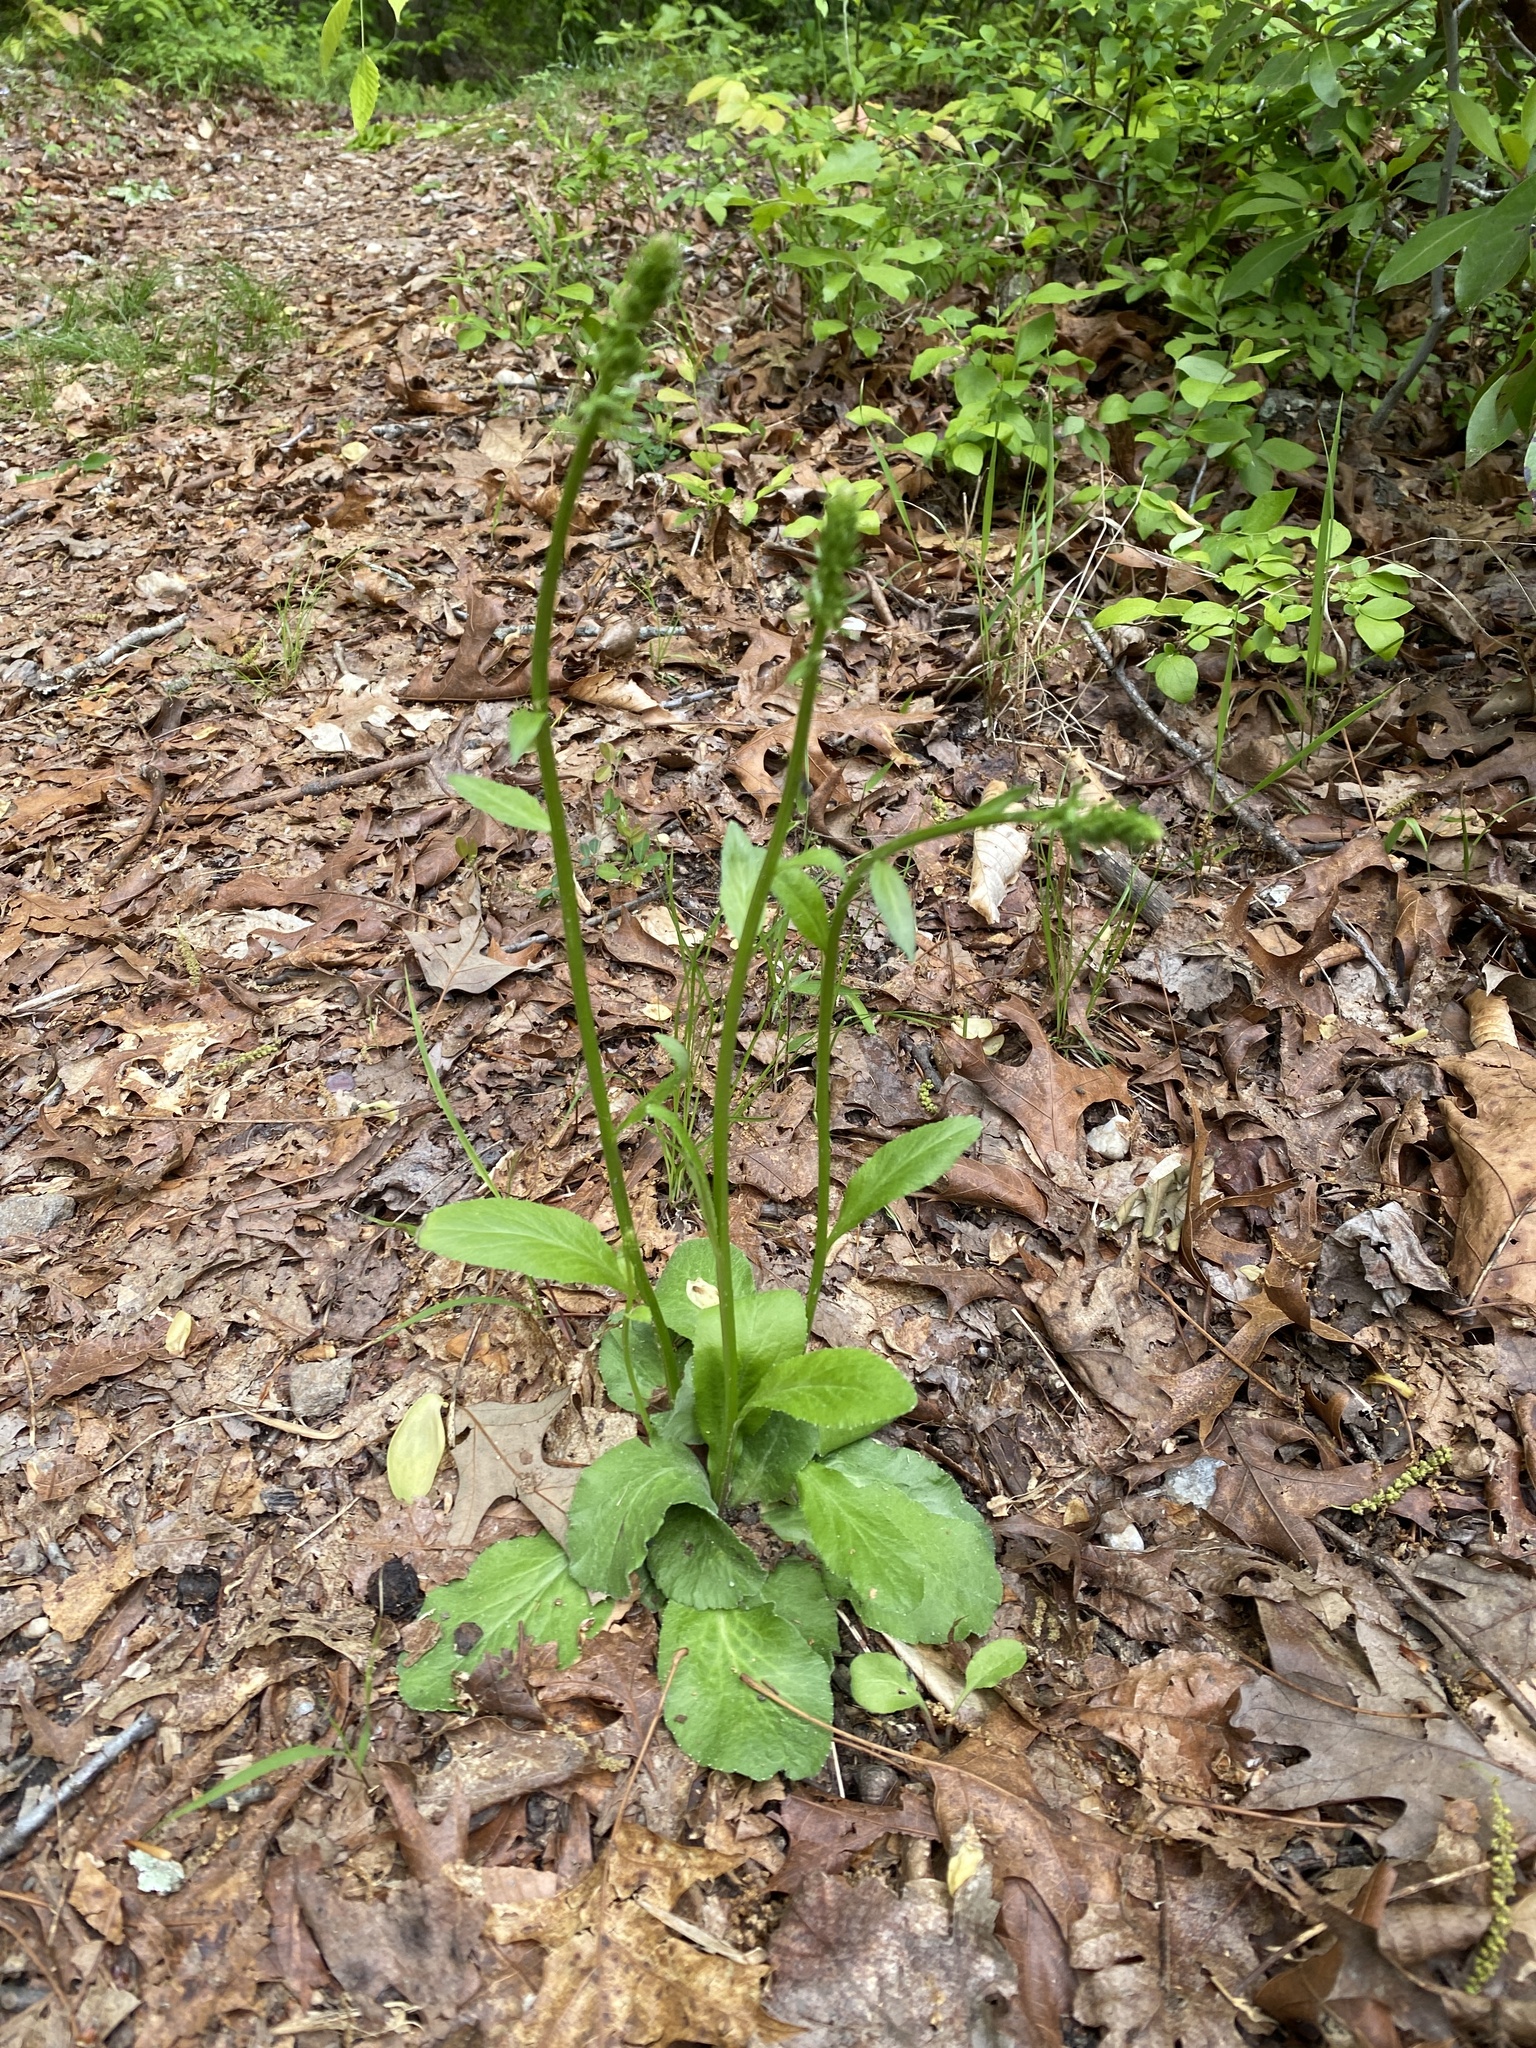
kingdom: Plantae
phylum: Tracheophyta
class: Magnoliopsida
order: Lamiales
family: Lamiaceae
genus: Salvia
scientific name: Salvia lyrata
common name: Cancerweed
